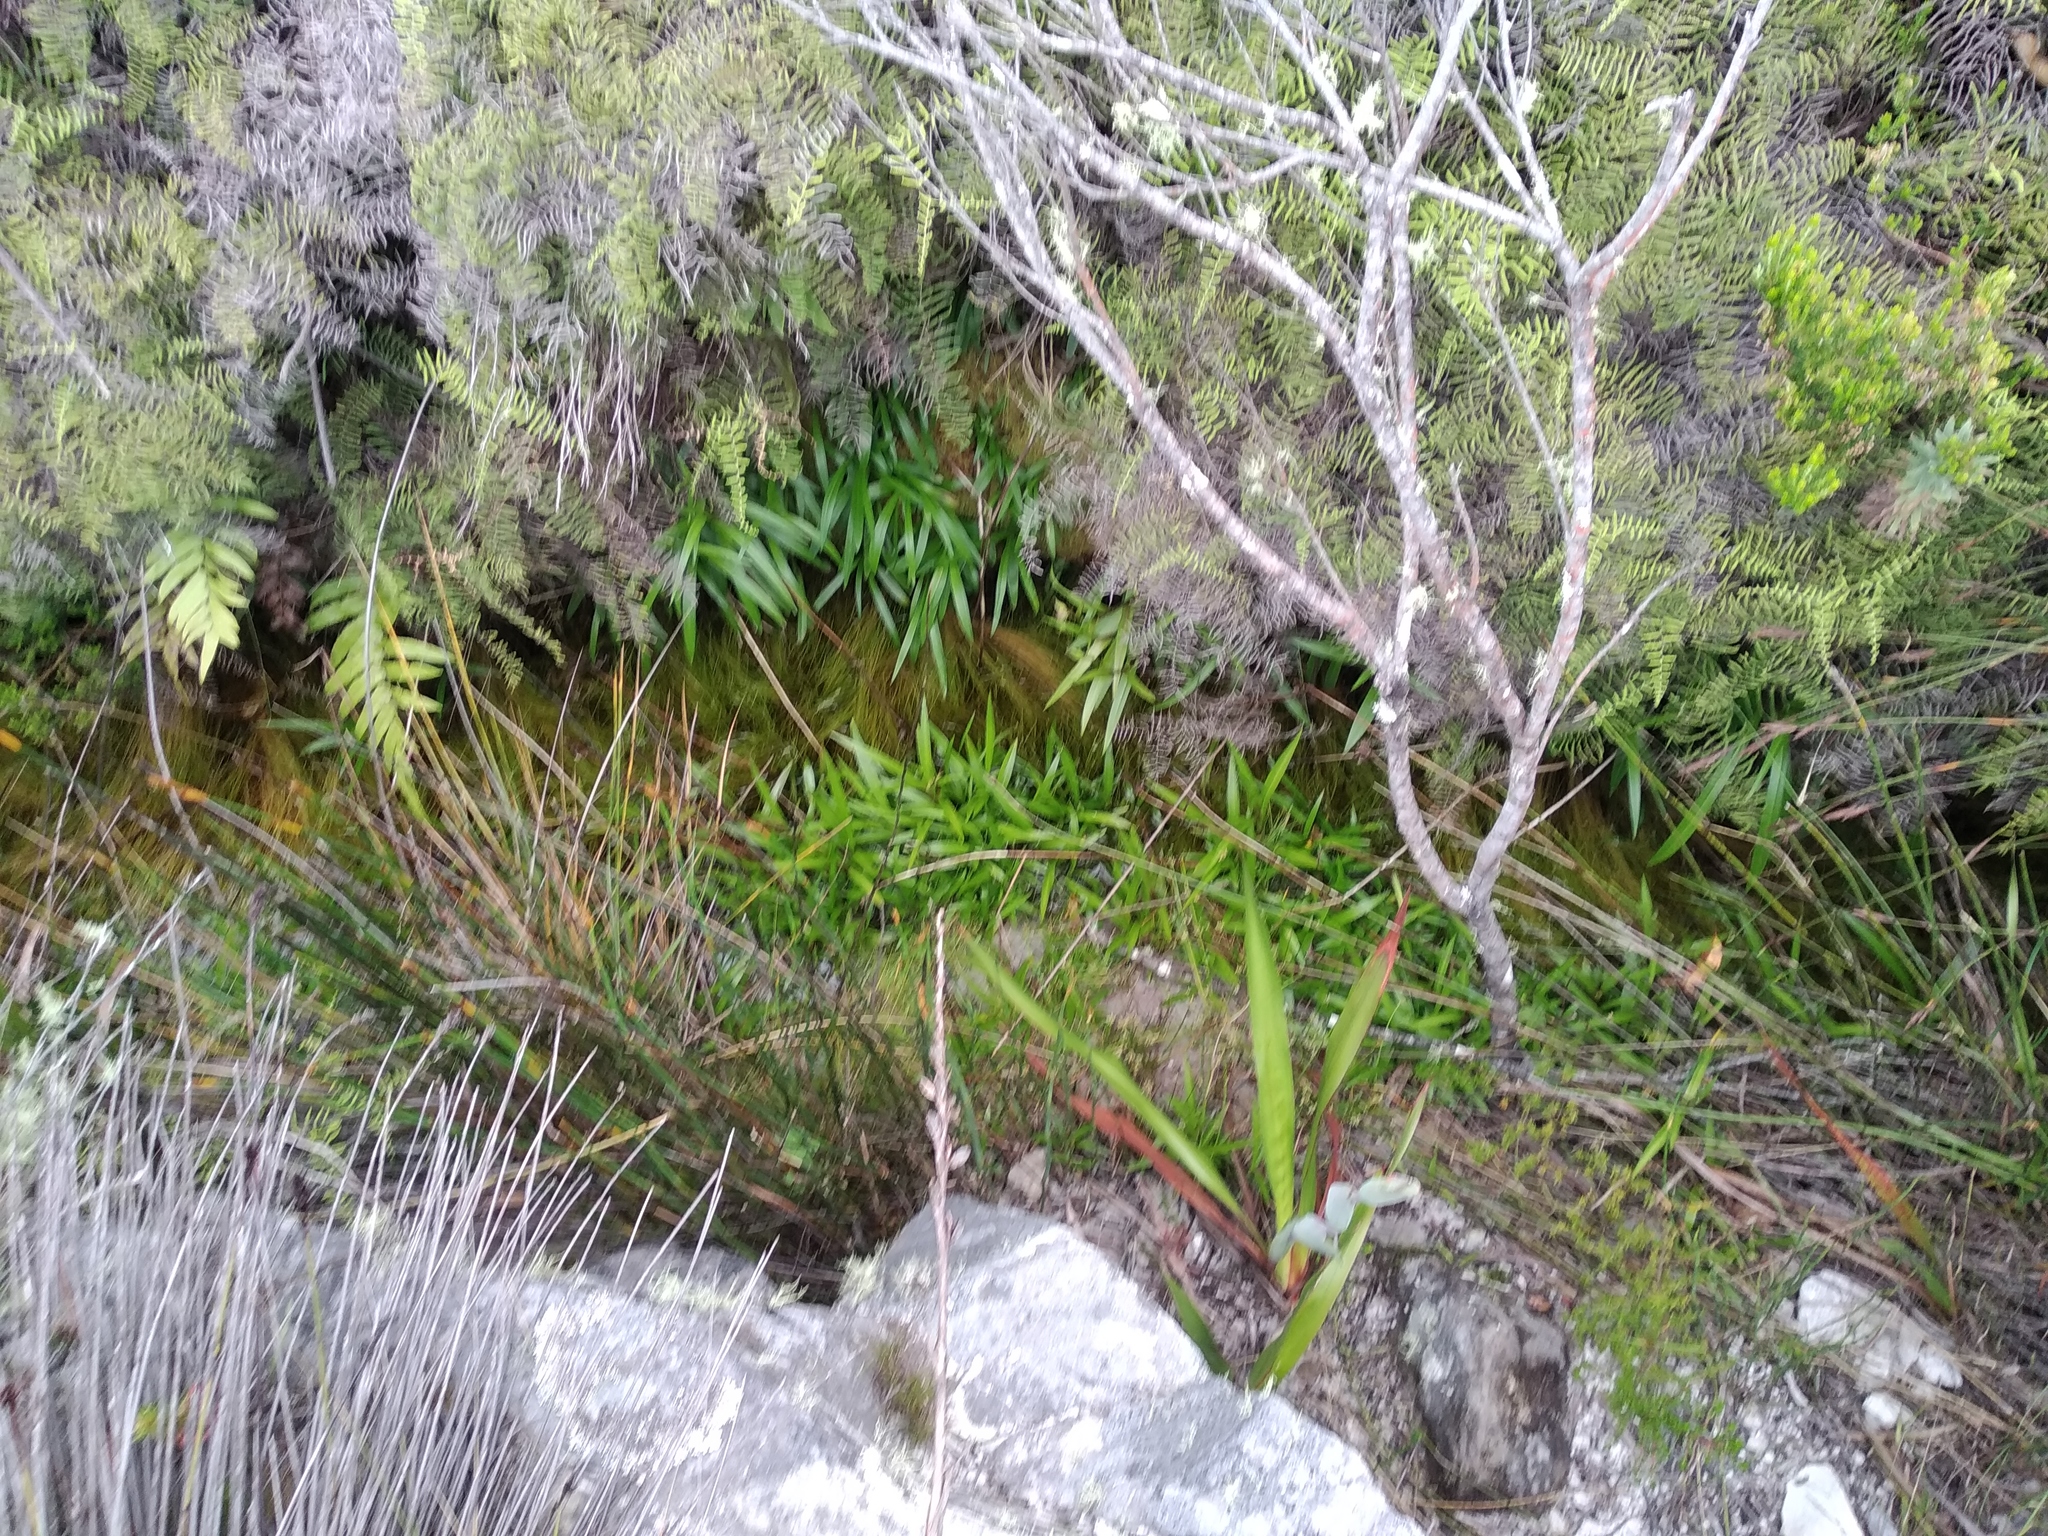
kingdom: Plantae
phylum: Tracheophyta
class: Liliopsida
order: Asparagales
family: Orchidaceae
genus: Disa
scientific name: Disa uniflora
